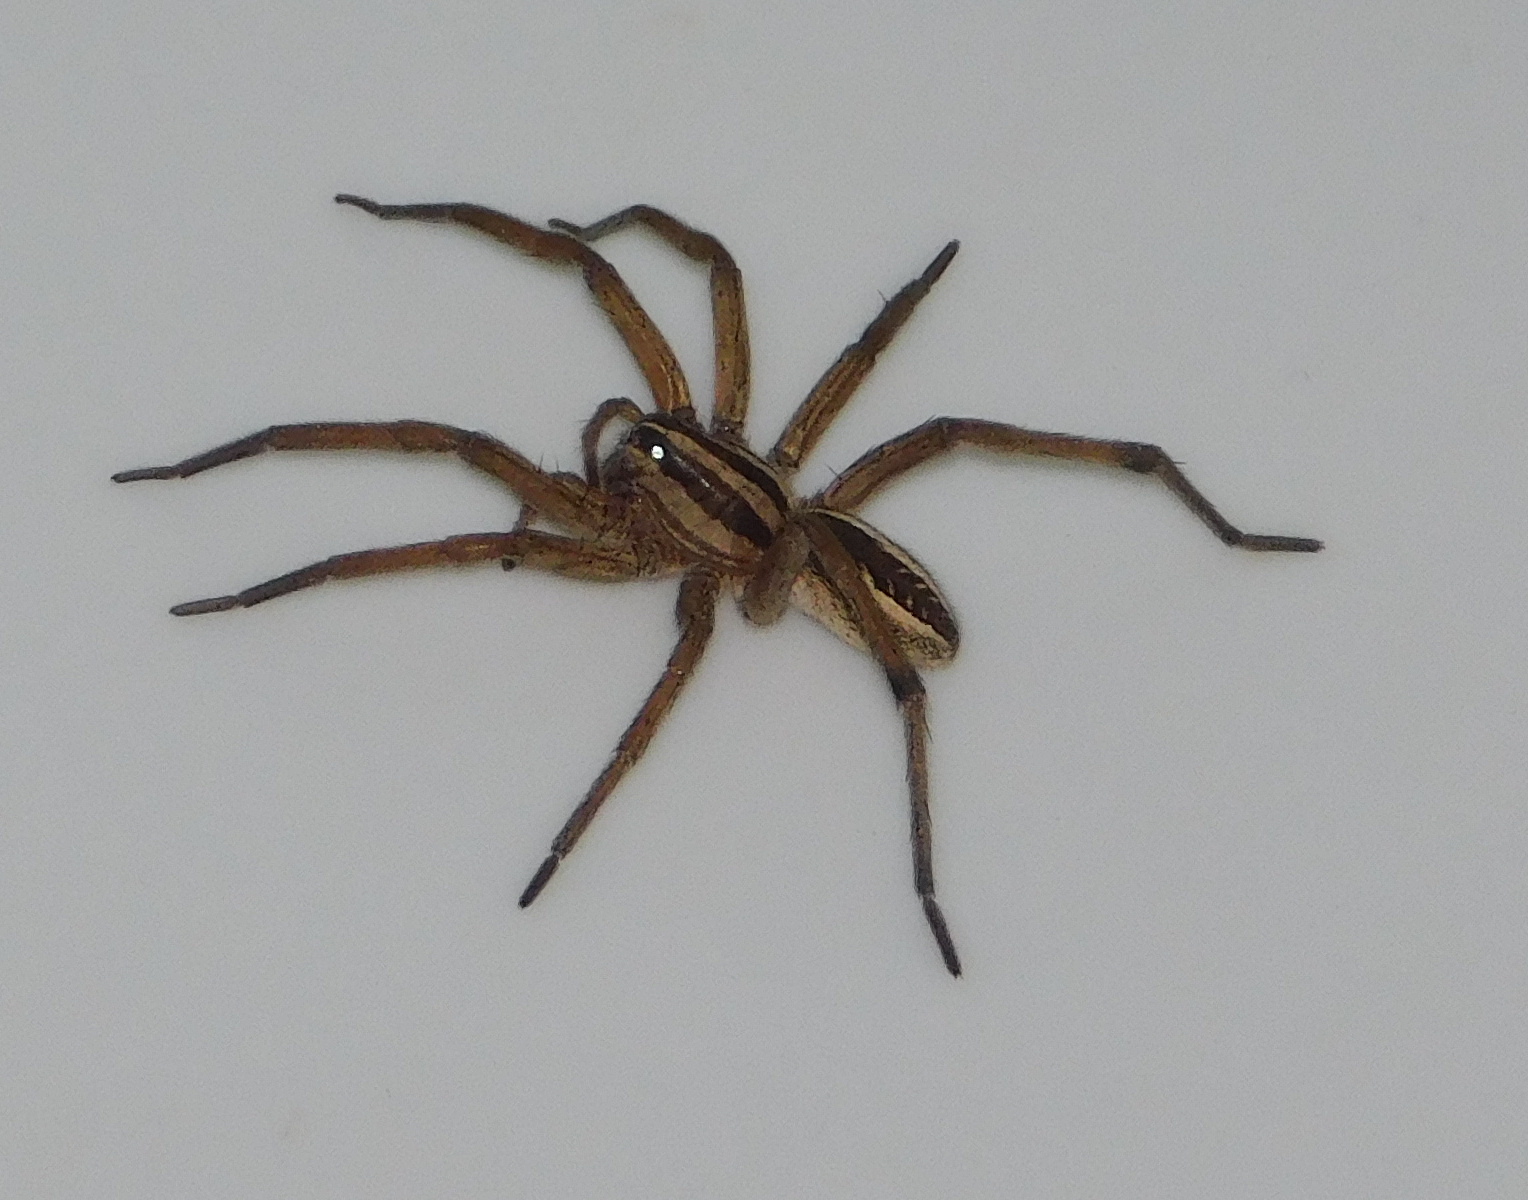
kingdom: Animalia
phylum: Arthropoda
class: Arachnida
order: Araneae
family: Lycosidae
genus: Rabidosa
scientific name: Rabidosa rabida
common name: Rabid wolf spider
